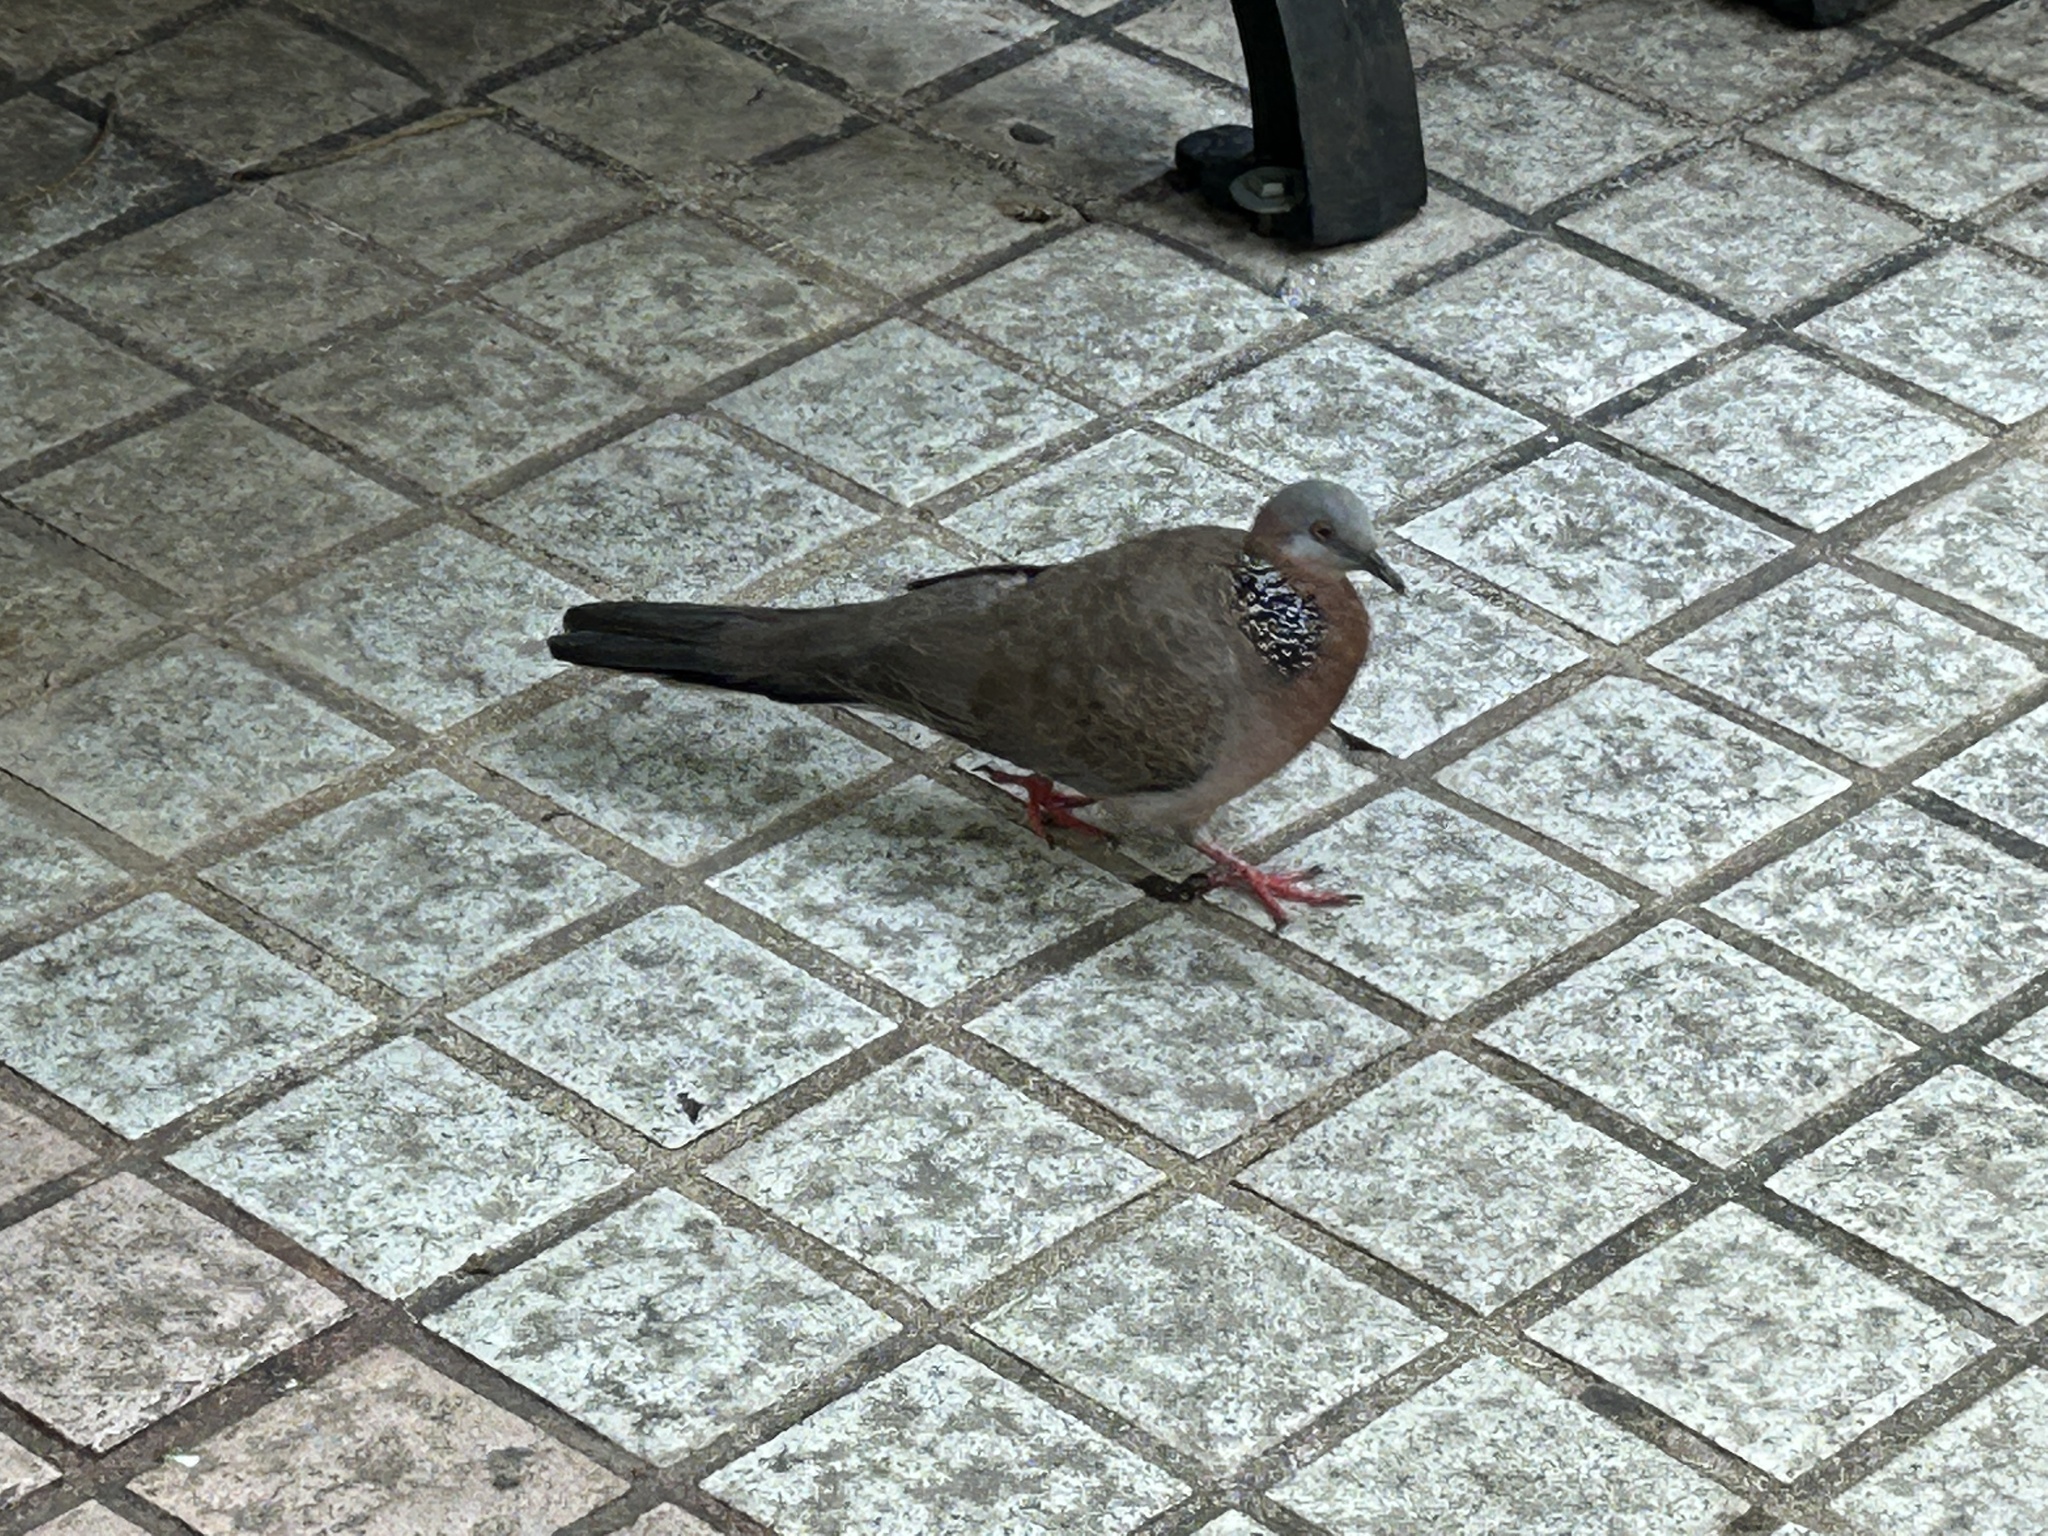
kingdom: Animalia
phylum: Chordata
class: Aves
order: Columbiformes
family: Columbidae
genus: Spilopelia
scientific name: Spilopelia chinensis
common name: Spotted dove
